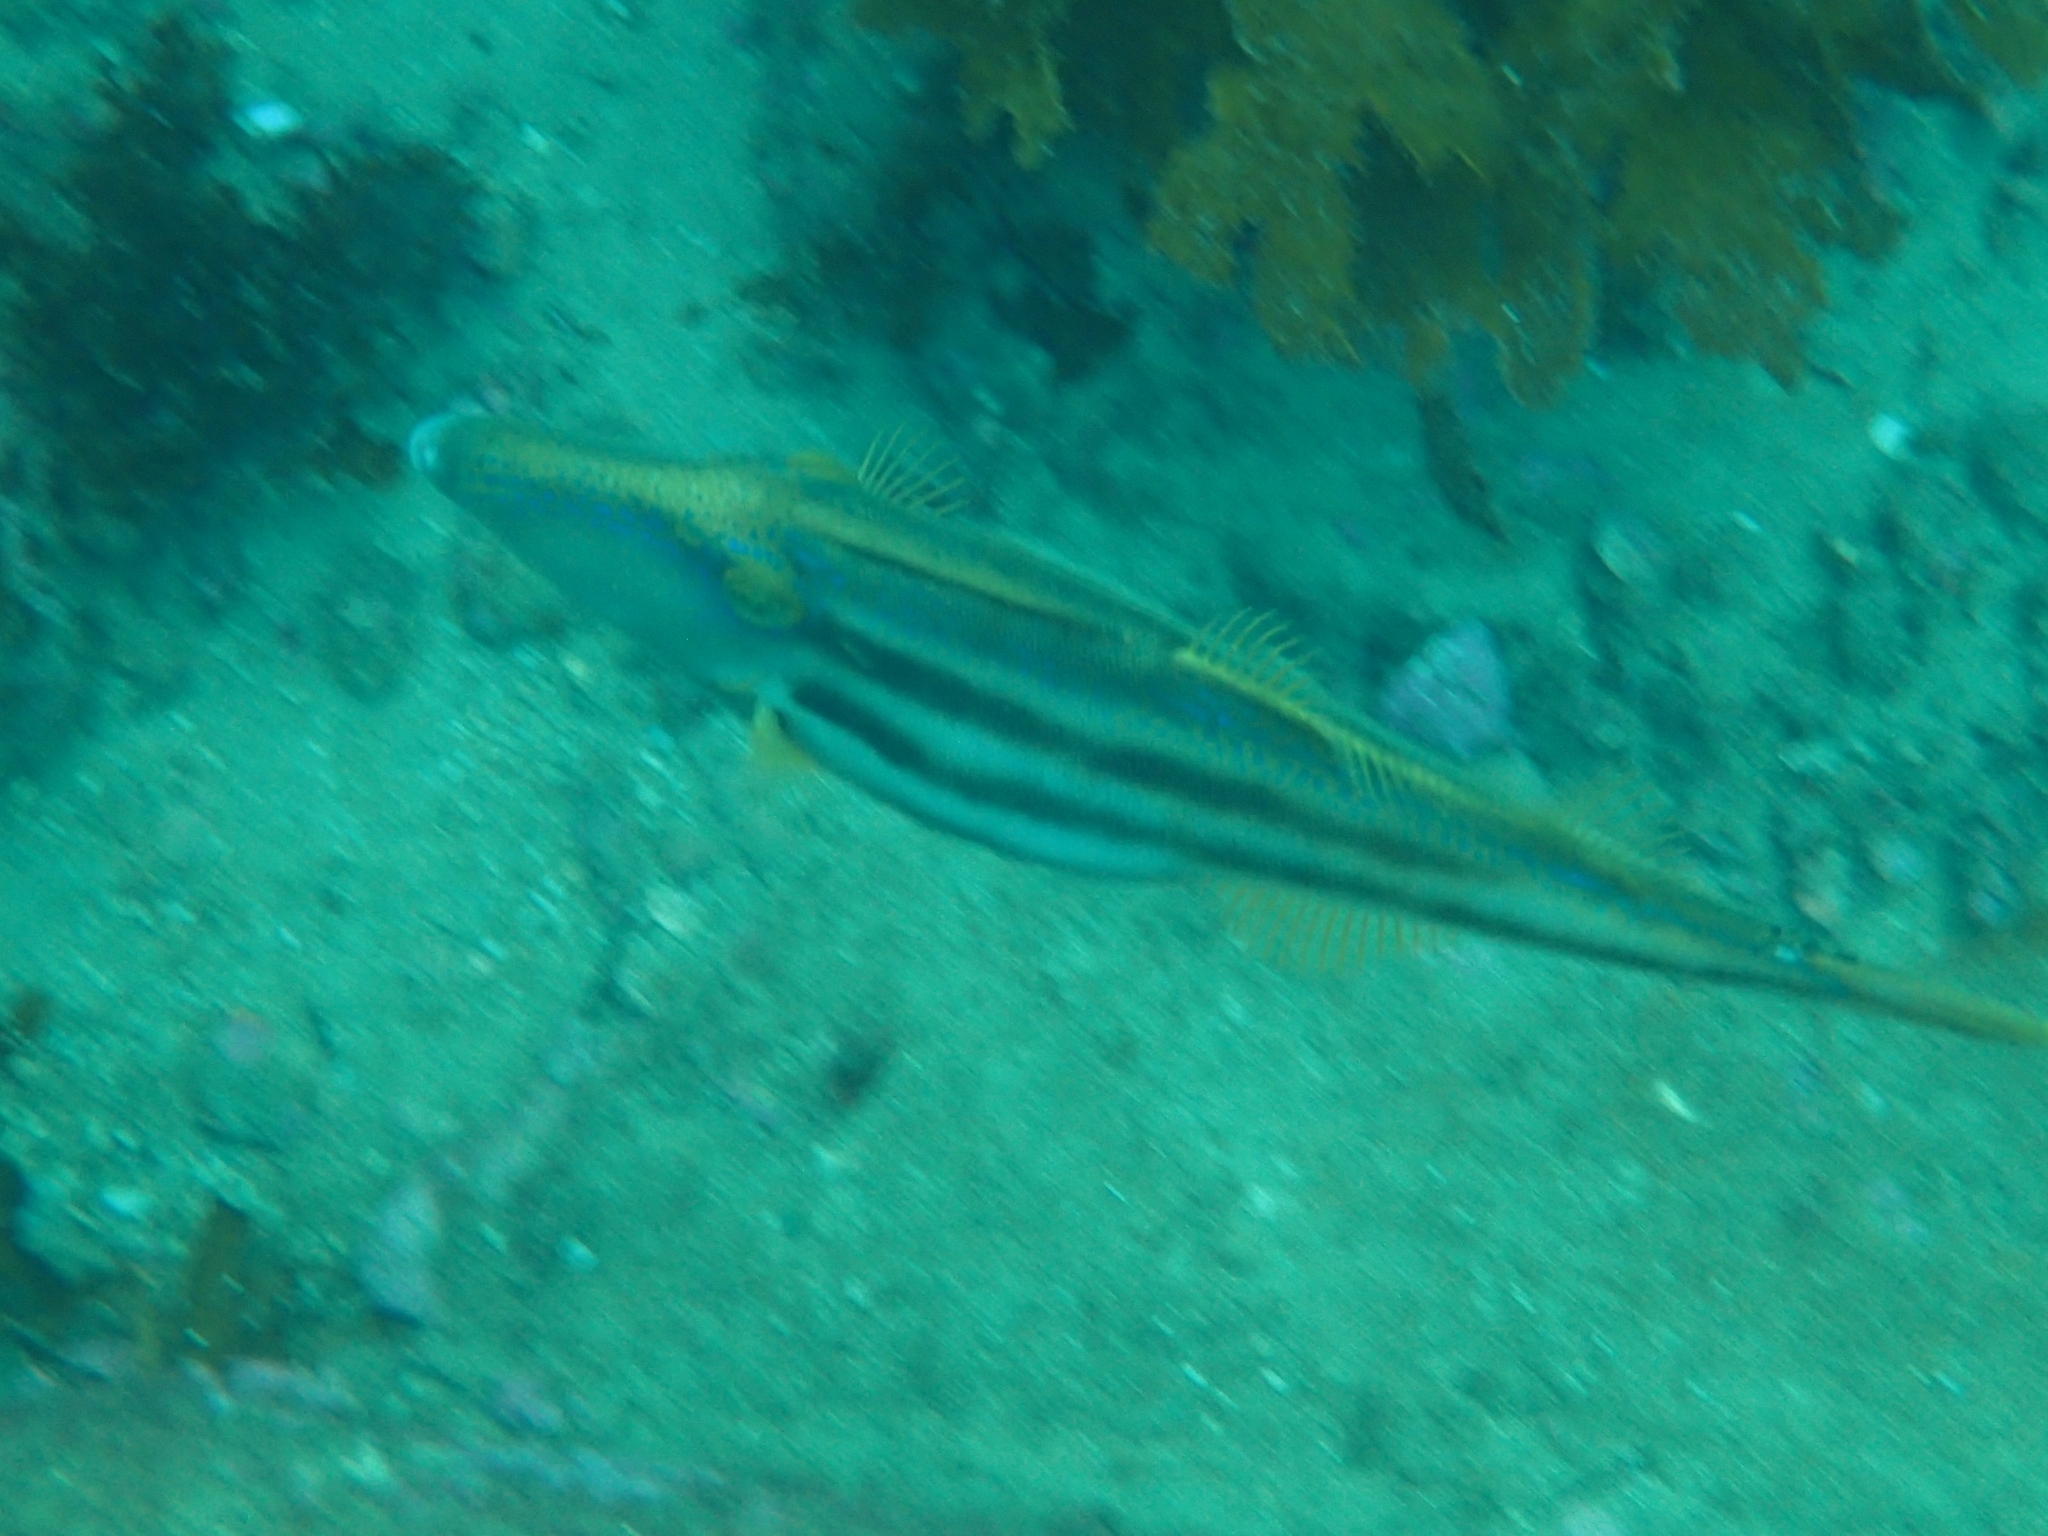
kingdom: Animalia
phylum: Chordata
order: Tetraodontiformes
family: Monacanthidae
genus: Meuschenia
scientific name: Meuschenia trachylepis
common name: Yellowfin leatherjacket
